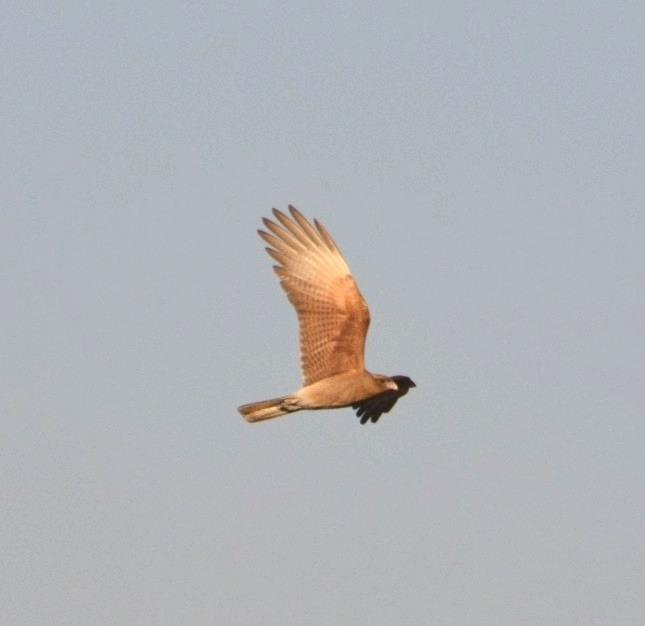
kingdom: Animalia
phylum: Chordata
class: Aves
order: Falconiformes
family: Falconidae
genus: Daptrius
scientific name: Daptrius
